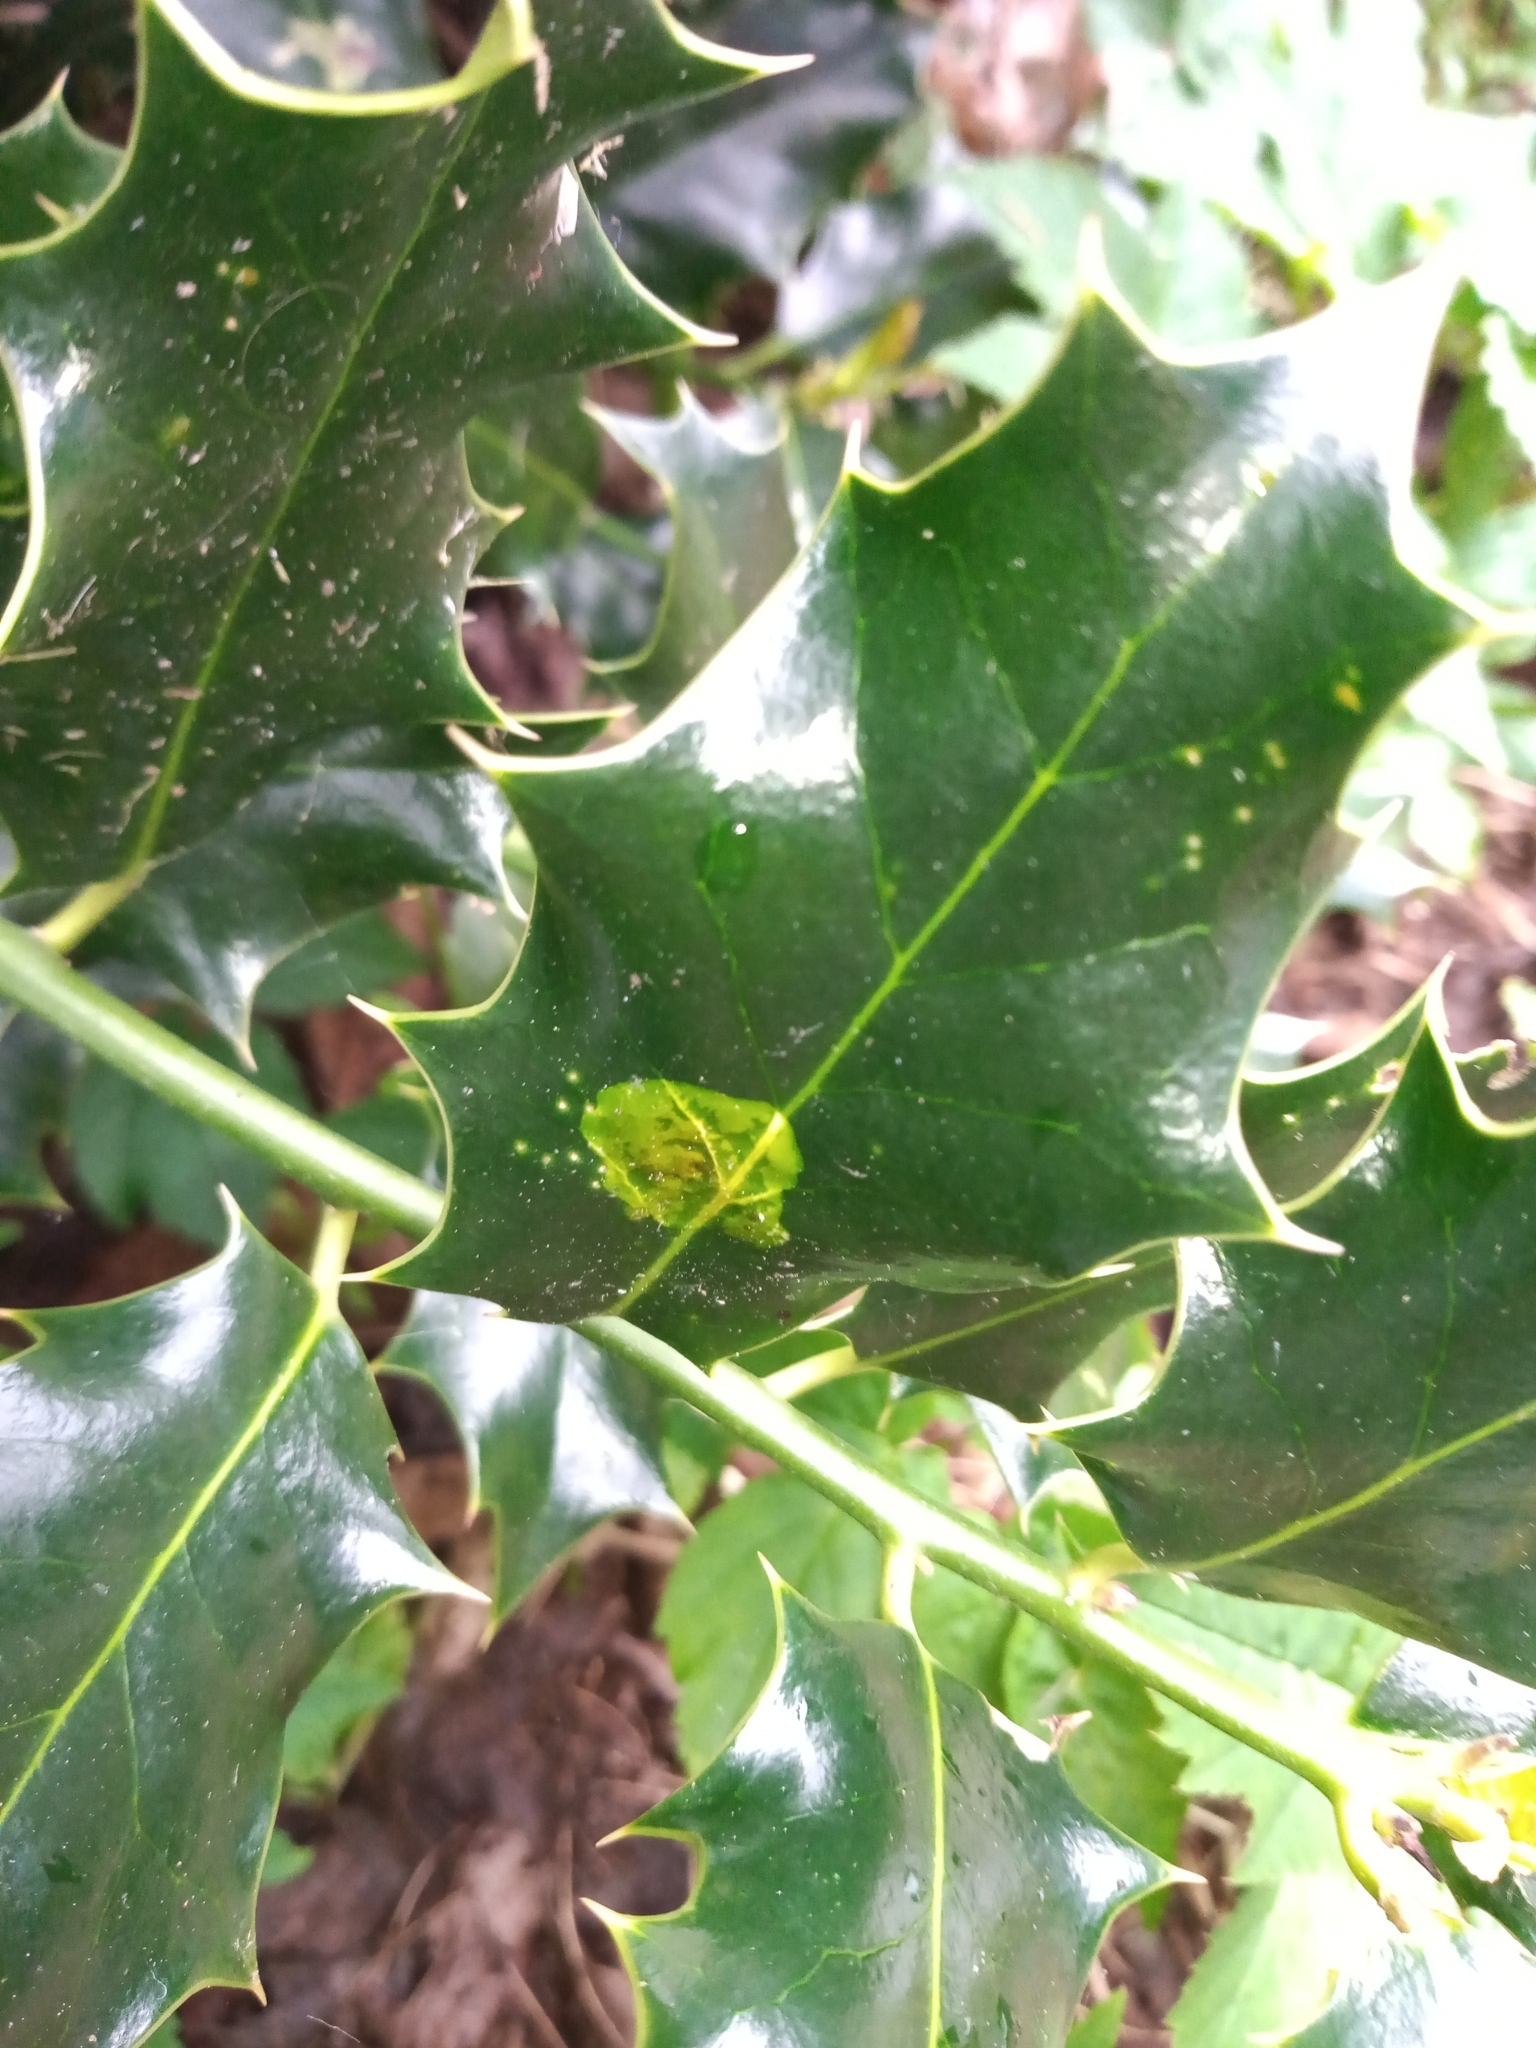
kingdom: Animalia
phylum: Arthropoda
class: Insecta
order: Diptera
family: Agromyzidae
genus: Phytomyza
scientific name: Phytomyza ilicis
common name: Holly leafminer
